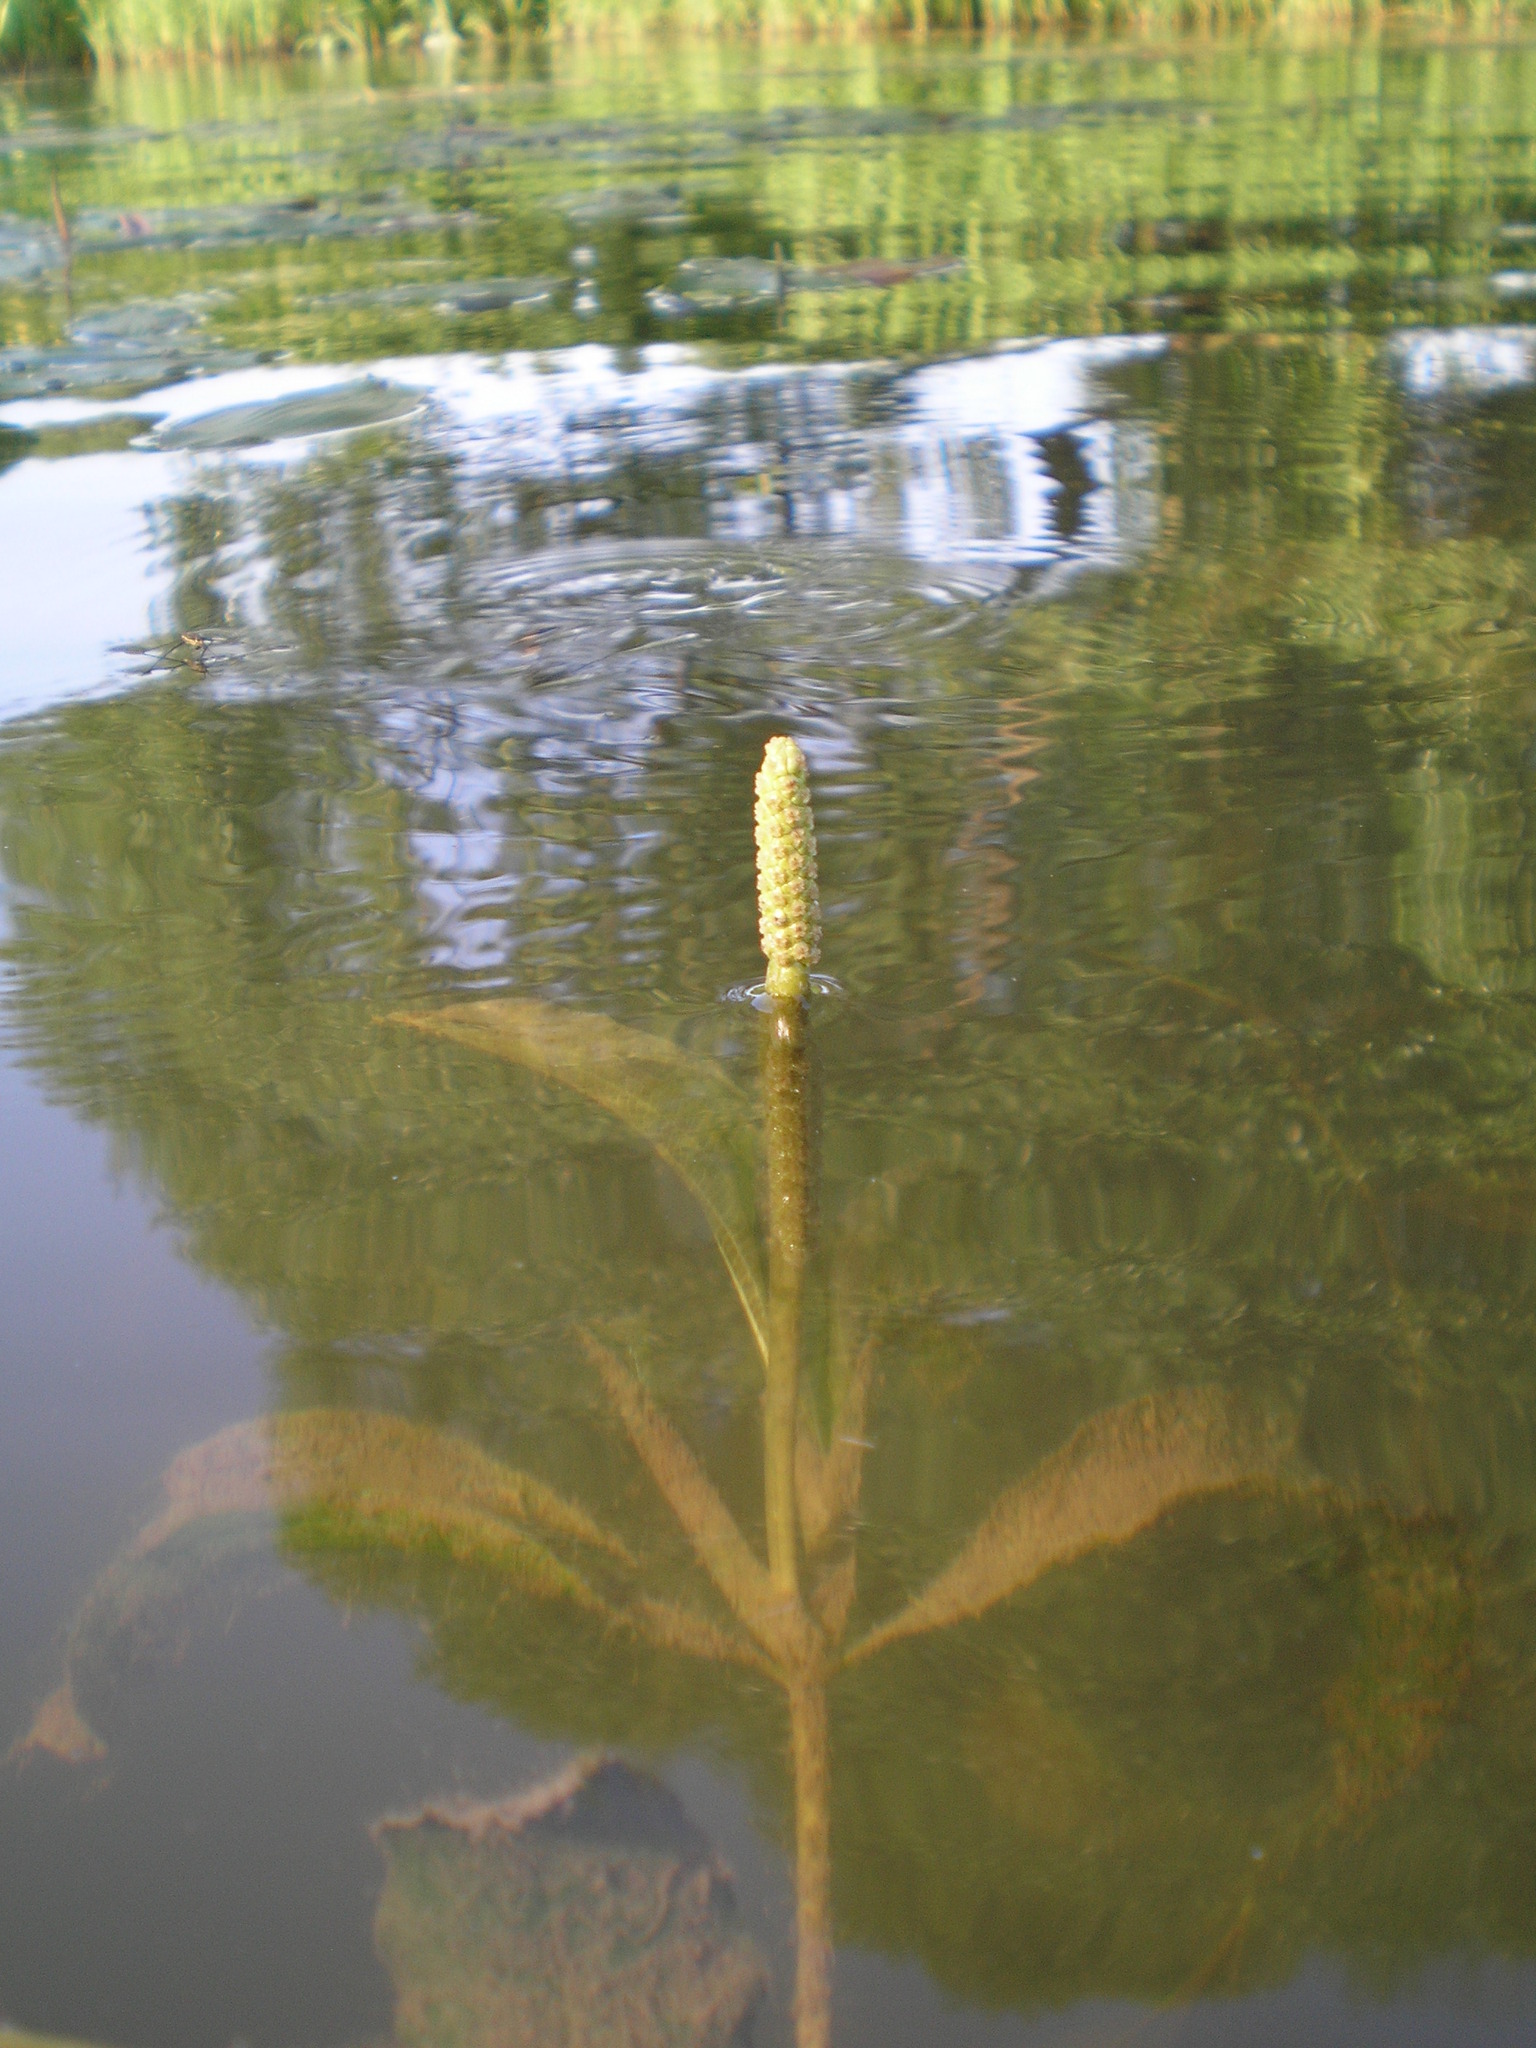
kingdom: Plantae
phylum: Tracheophyta
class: Liliopsida
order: Alismatales
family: Potamogetonaceae
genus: Potamogeton
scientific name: Potamogeton lucens
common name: Shining pondweed
